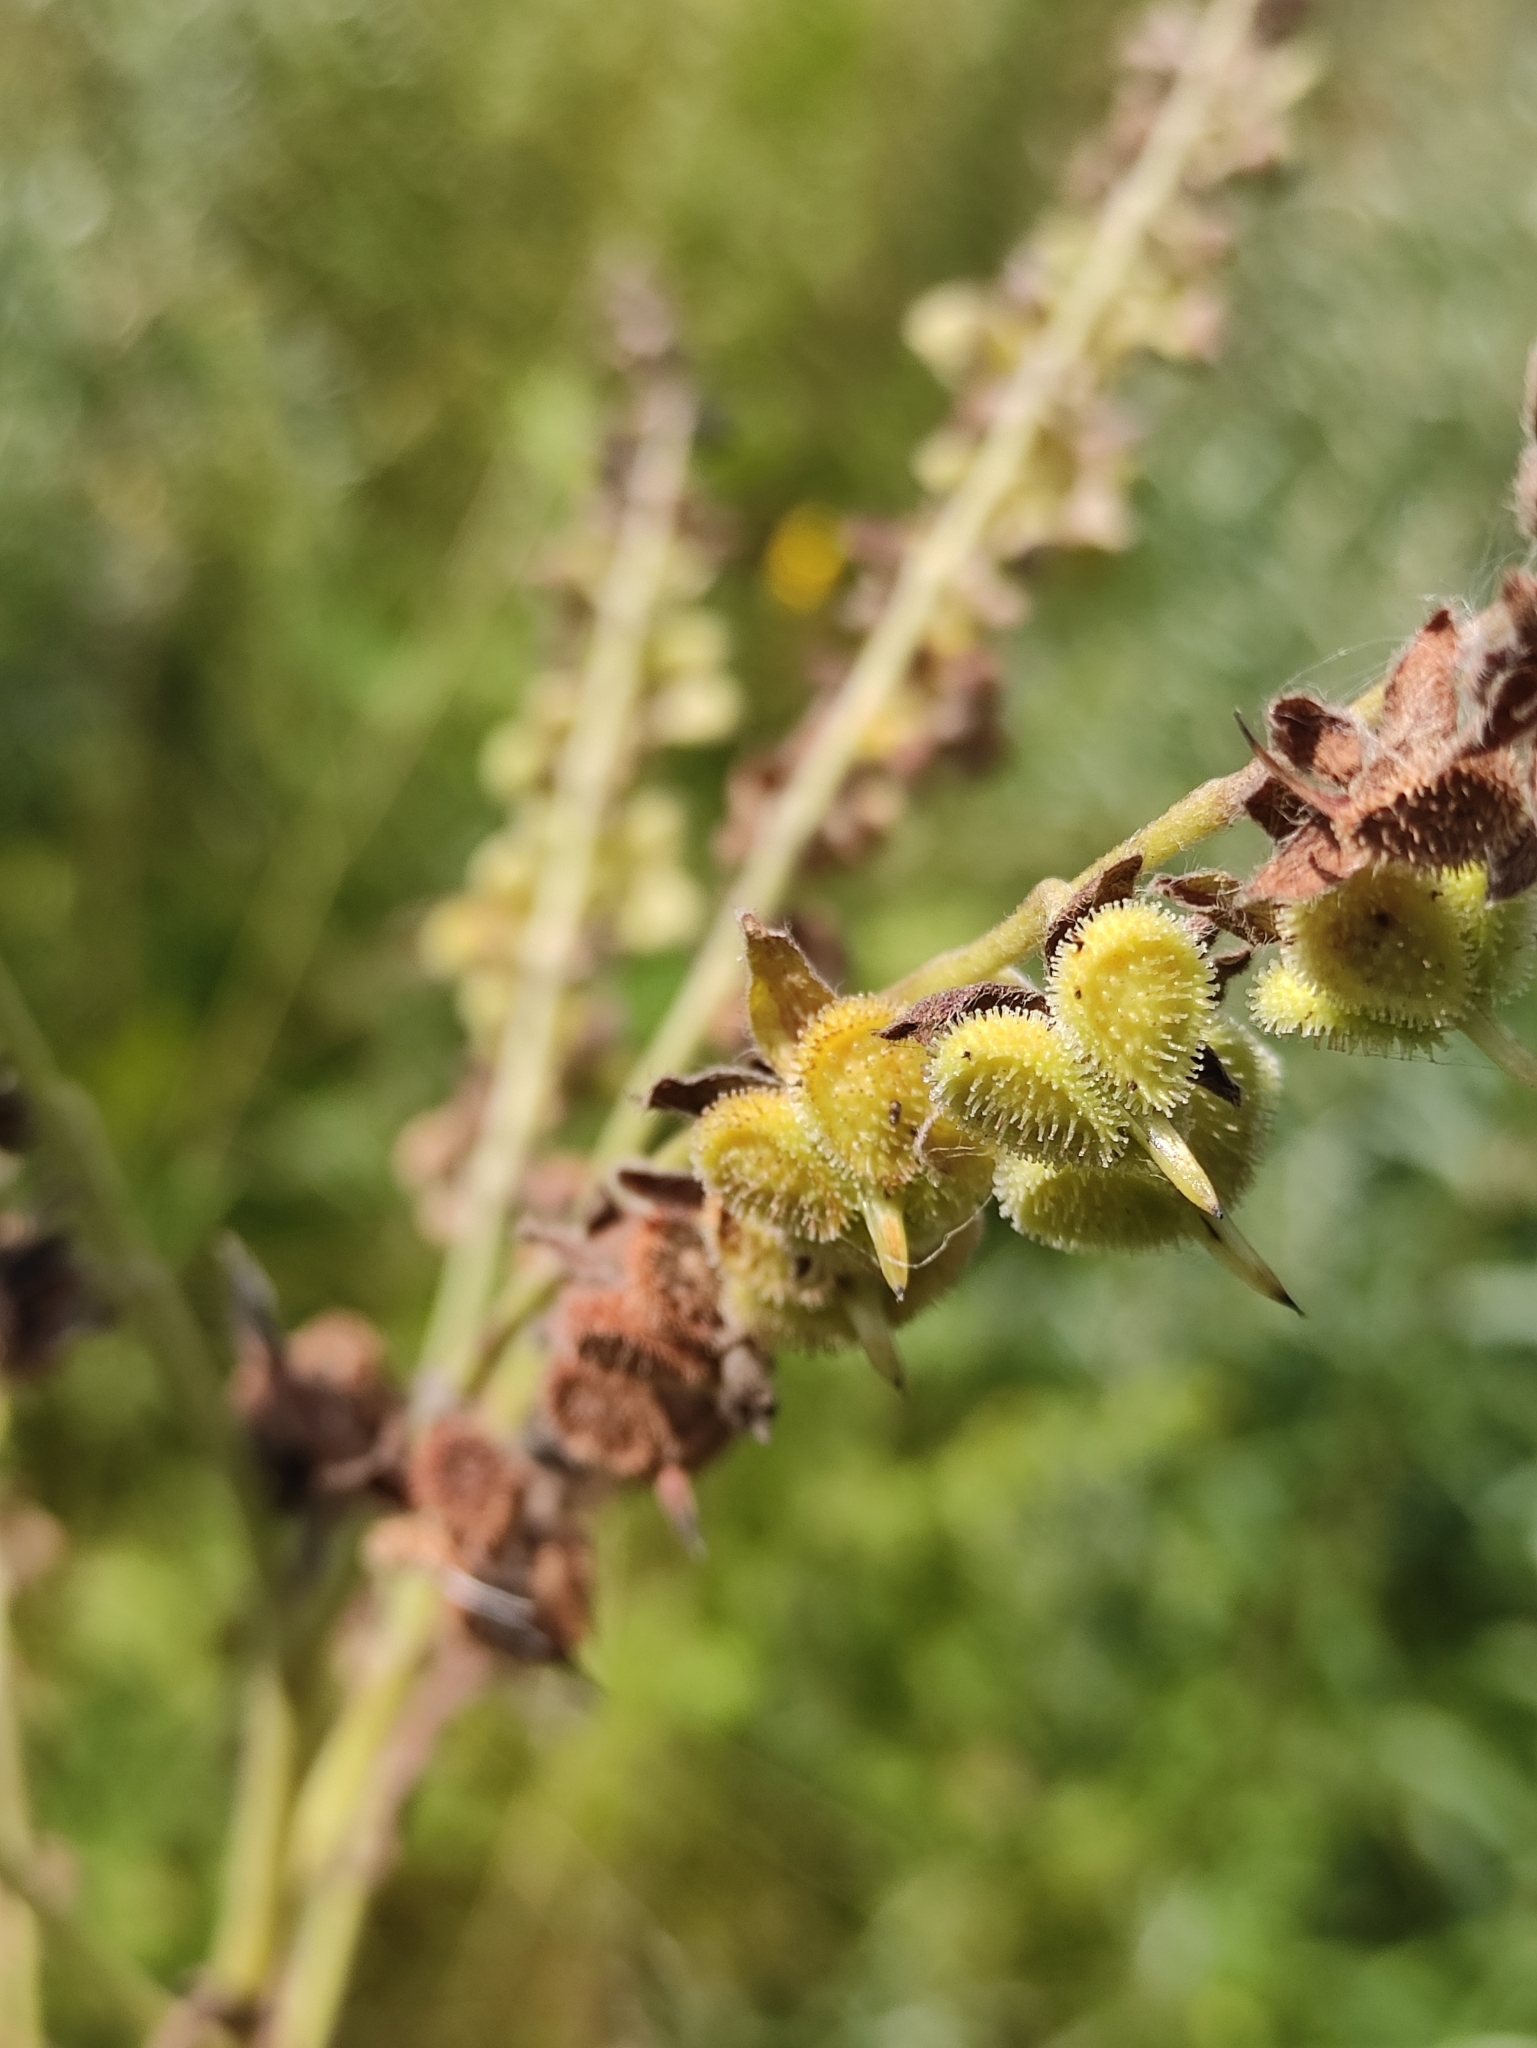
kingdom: Plantae
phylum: Tracheophyta
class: Magnoliopsida
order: Boraginales
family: Boraginaceae
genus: Cynoglossum
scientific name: Cynoglossum officinale
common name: Hound's-tongue
